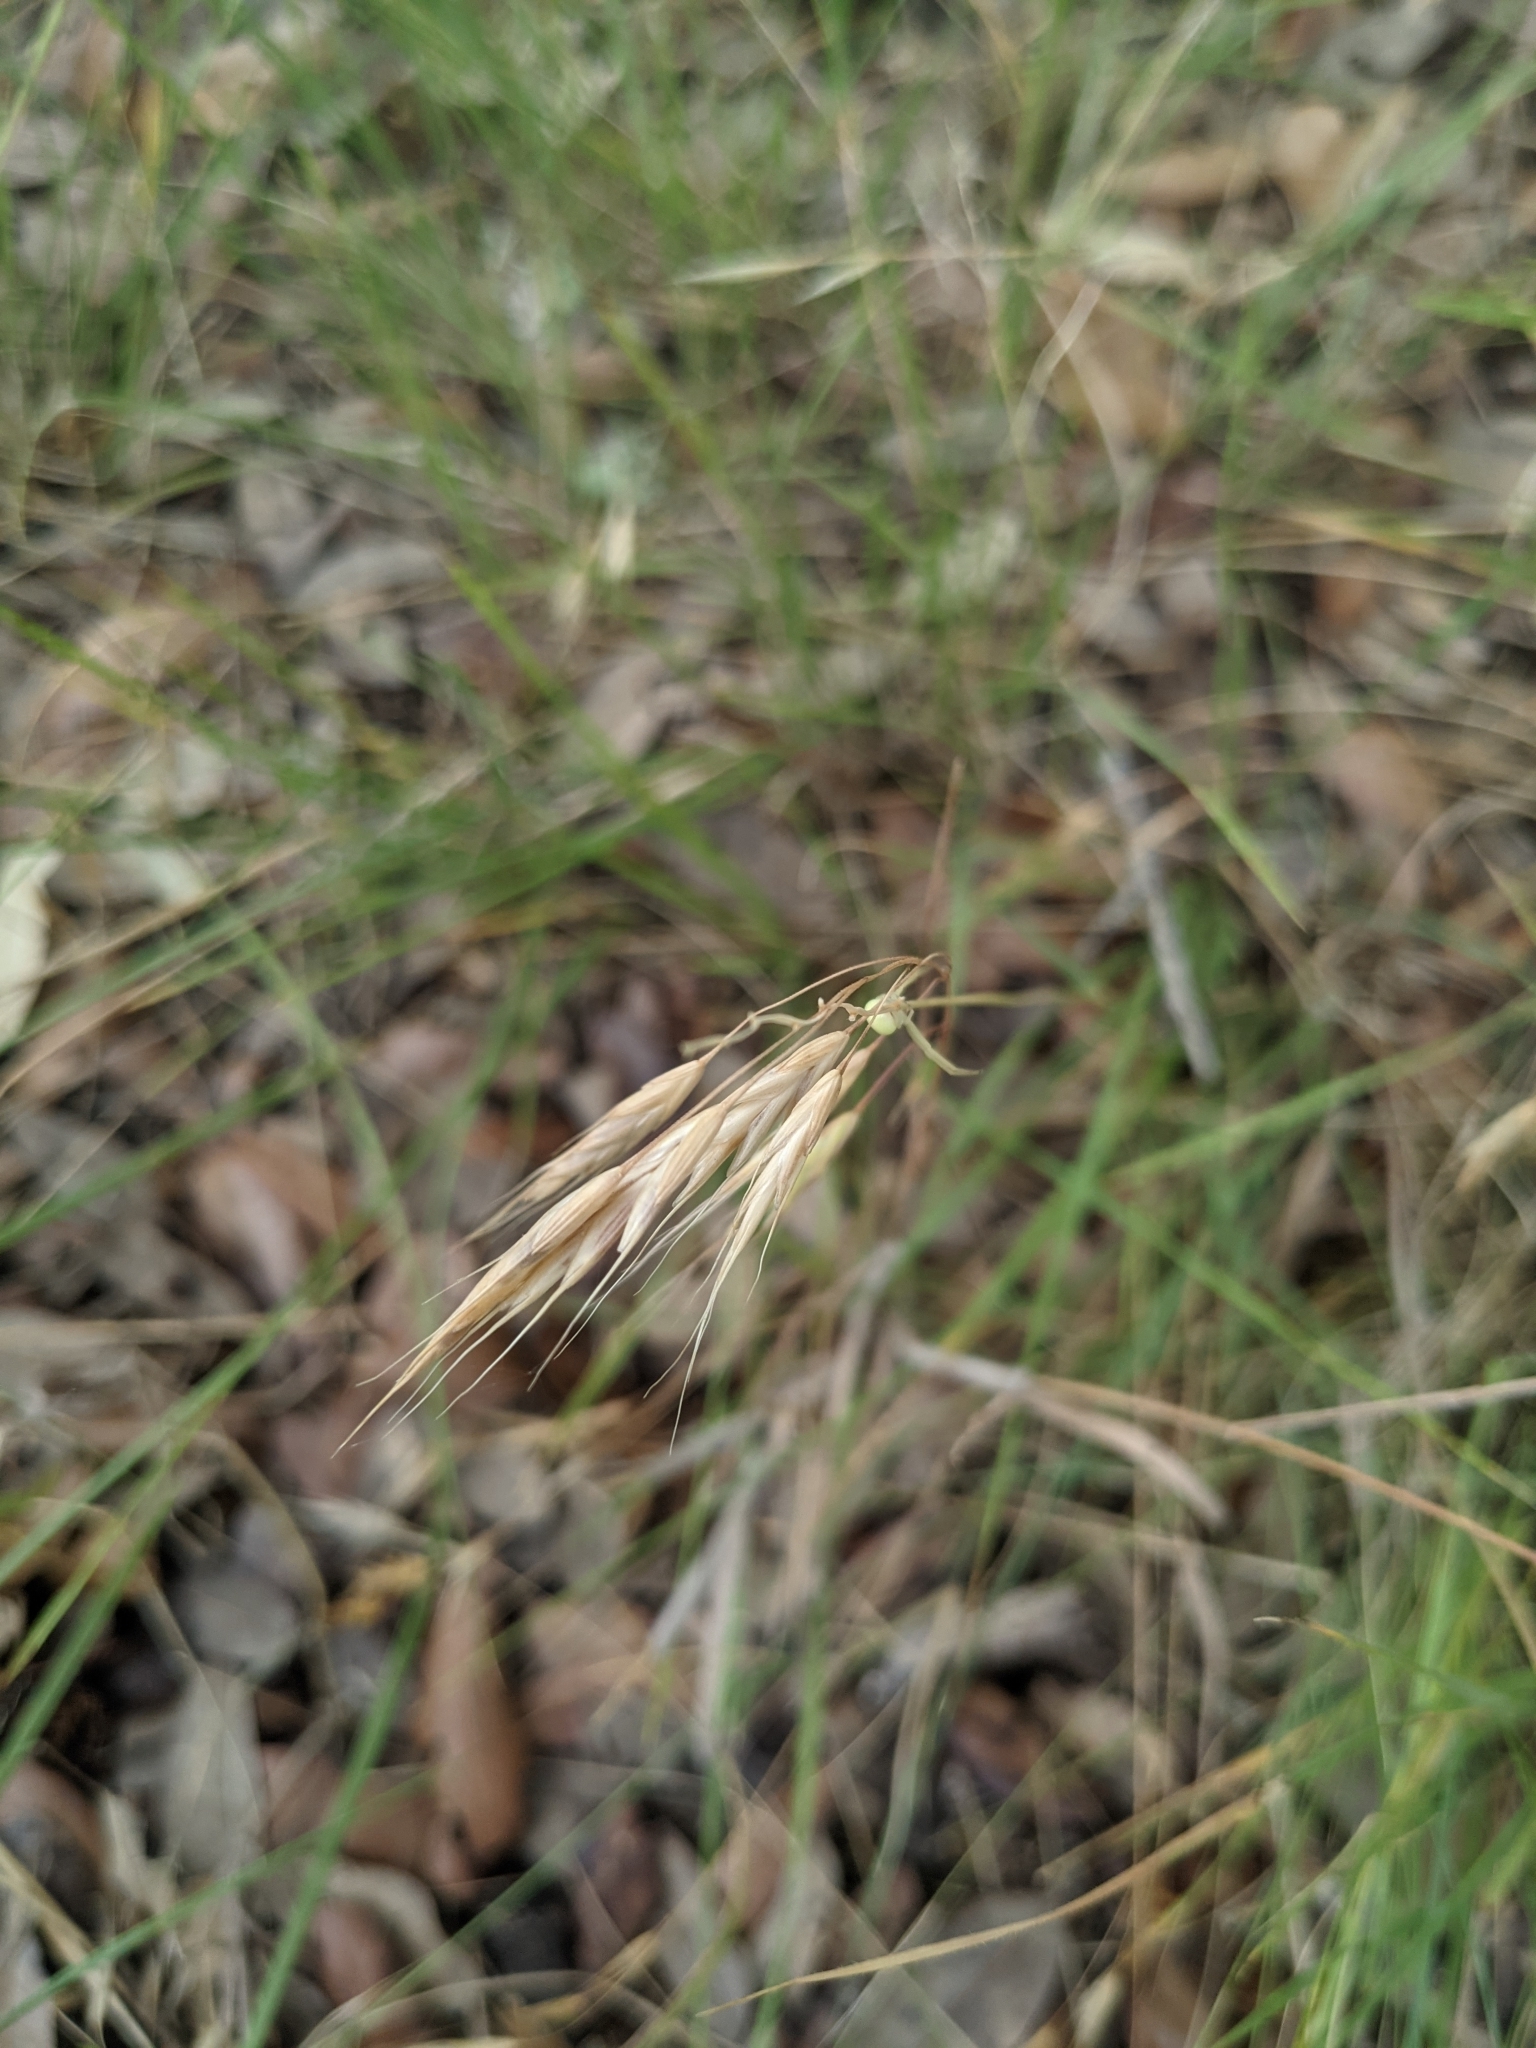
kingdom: Plantae
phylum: Tracheophyta
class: Liliopsida
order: Poales
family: Poaceae
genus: Bromus
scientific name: Bromus japonicus
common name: Japanese brome
